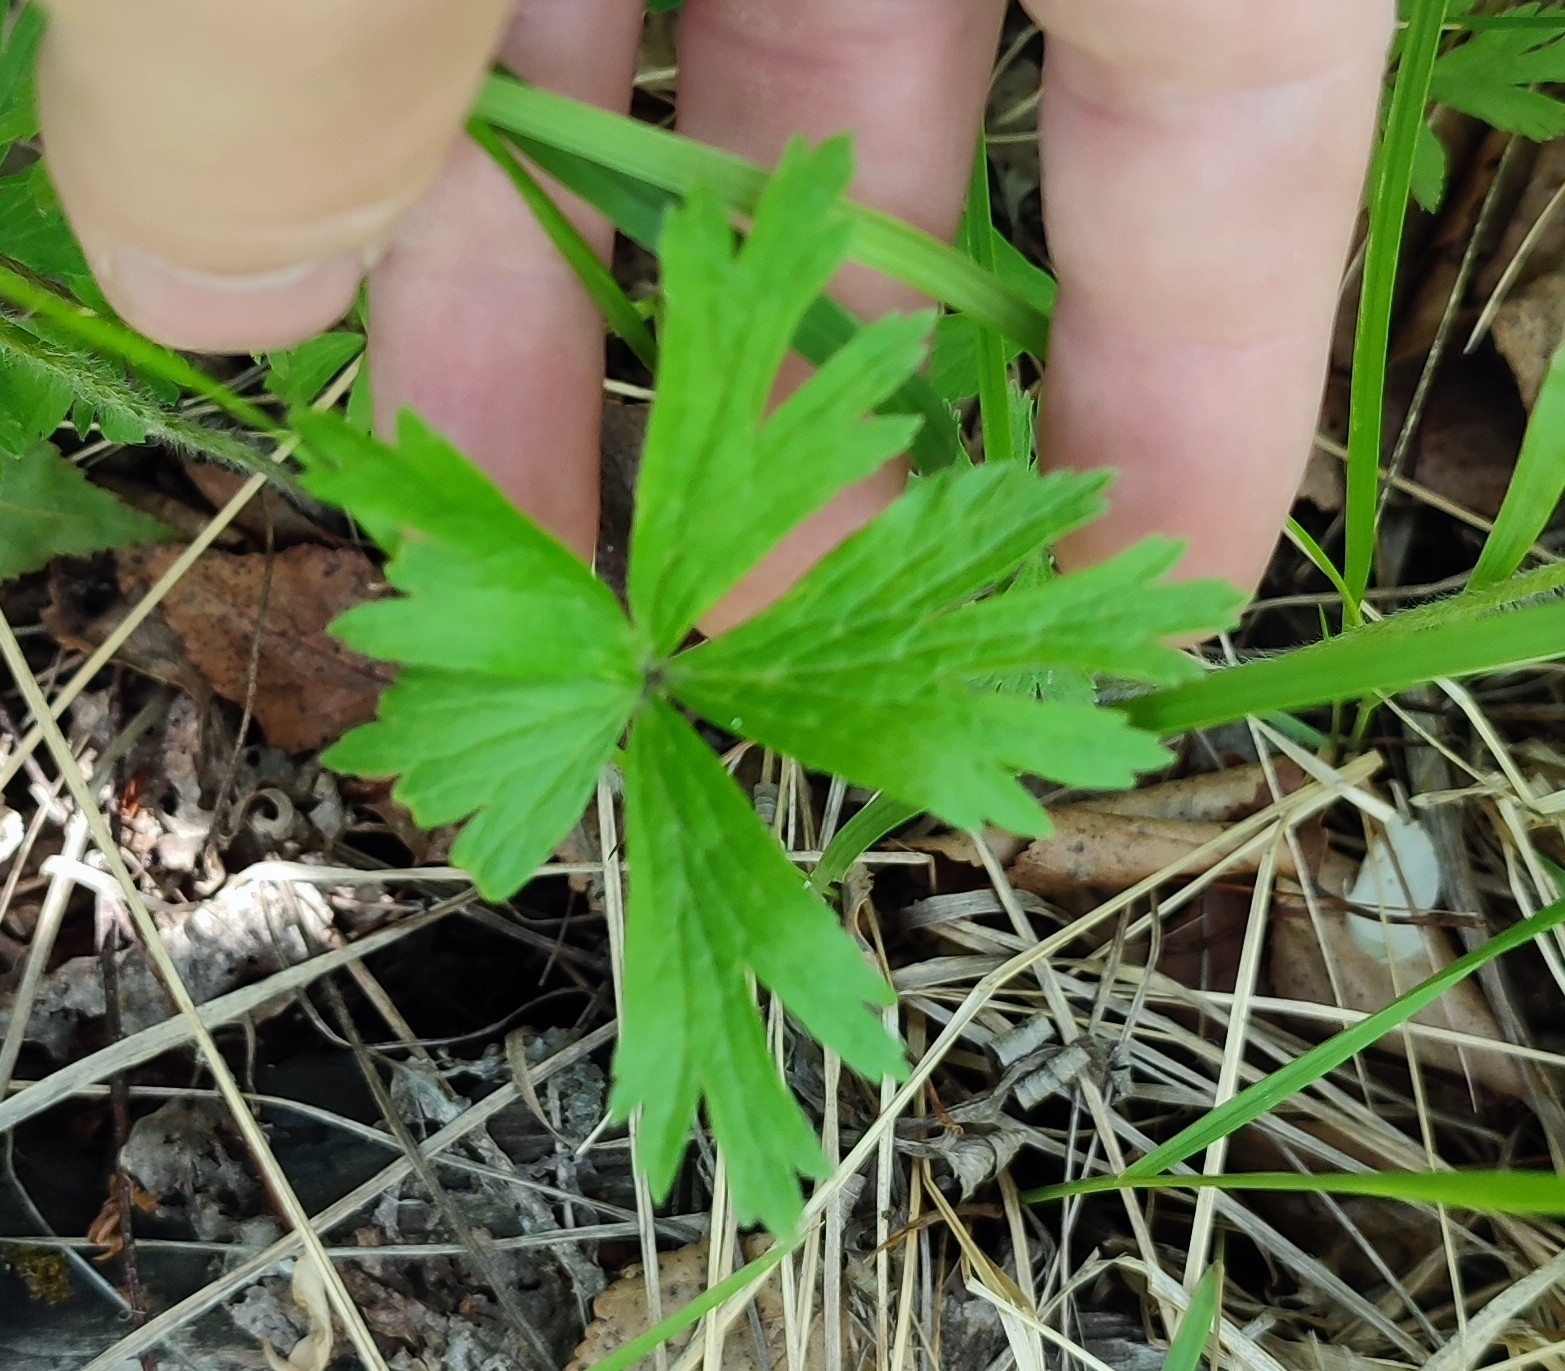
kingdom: Plantae
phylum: Tracheophyta
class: Magnoliopsida
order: Ranunculales
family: Ranunculaceae
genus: Anemone
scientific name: Anemone sylvestris
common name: Snowdrop anemone
